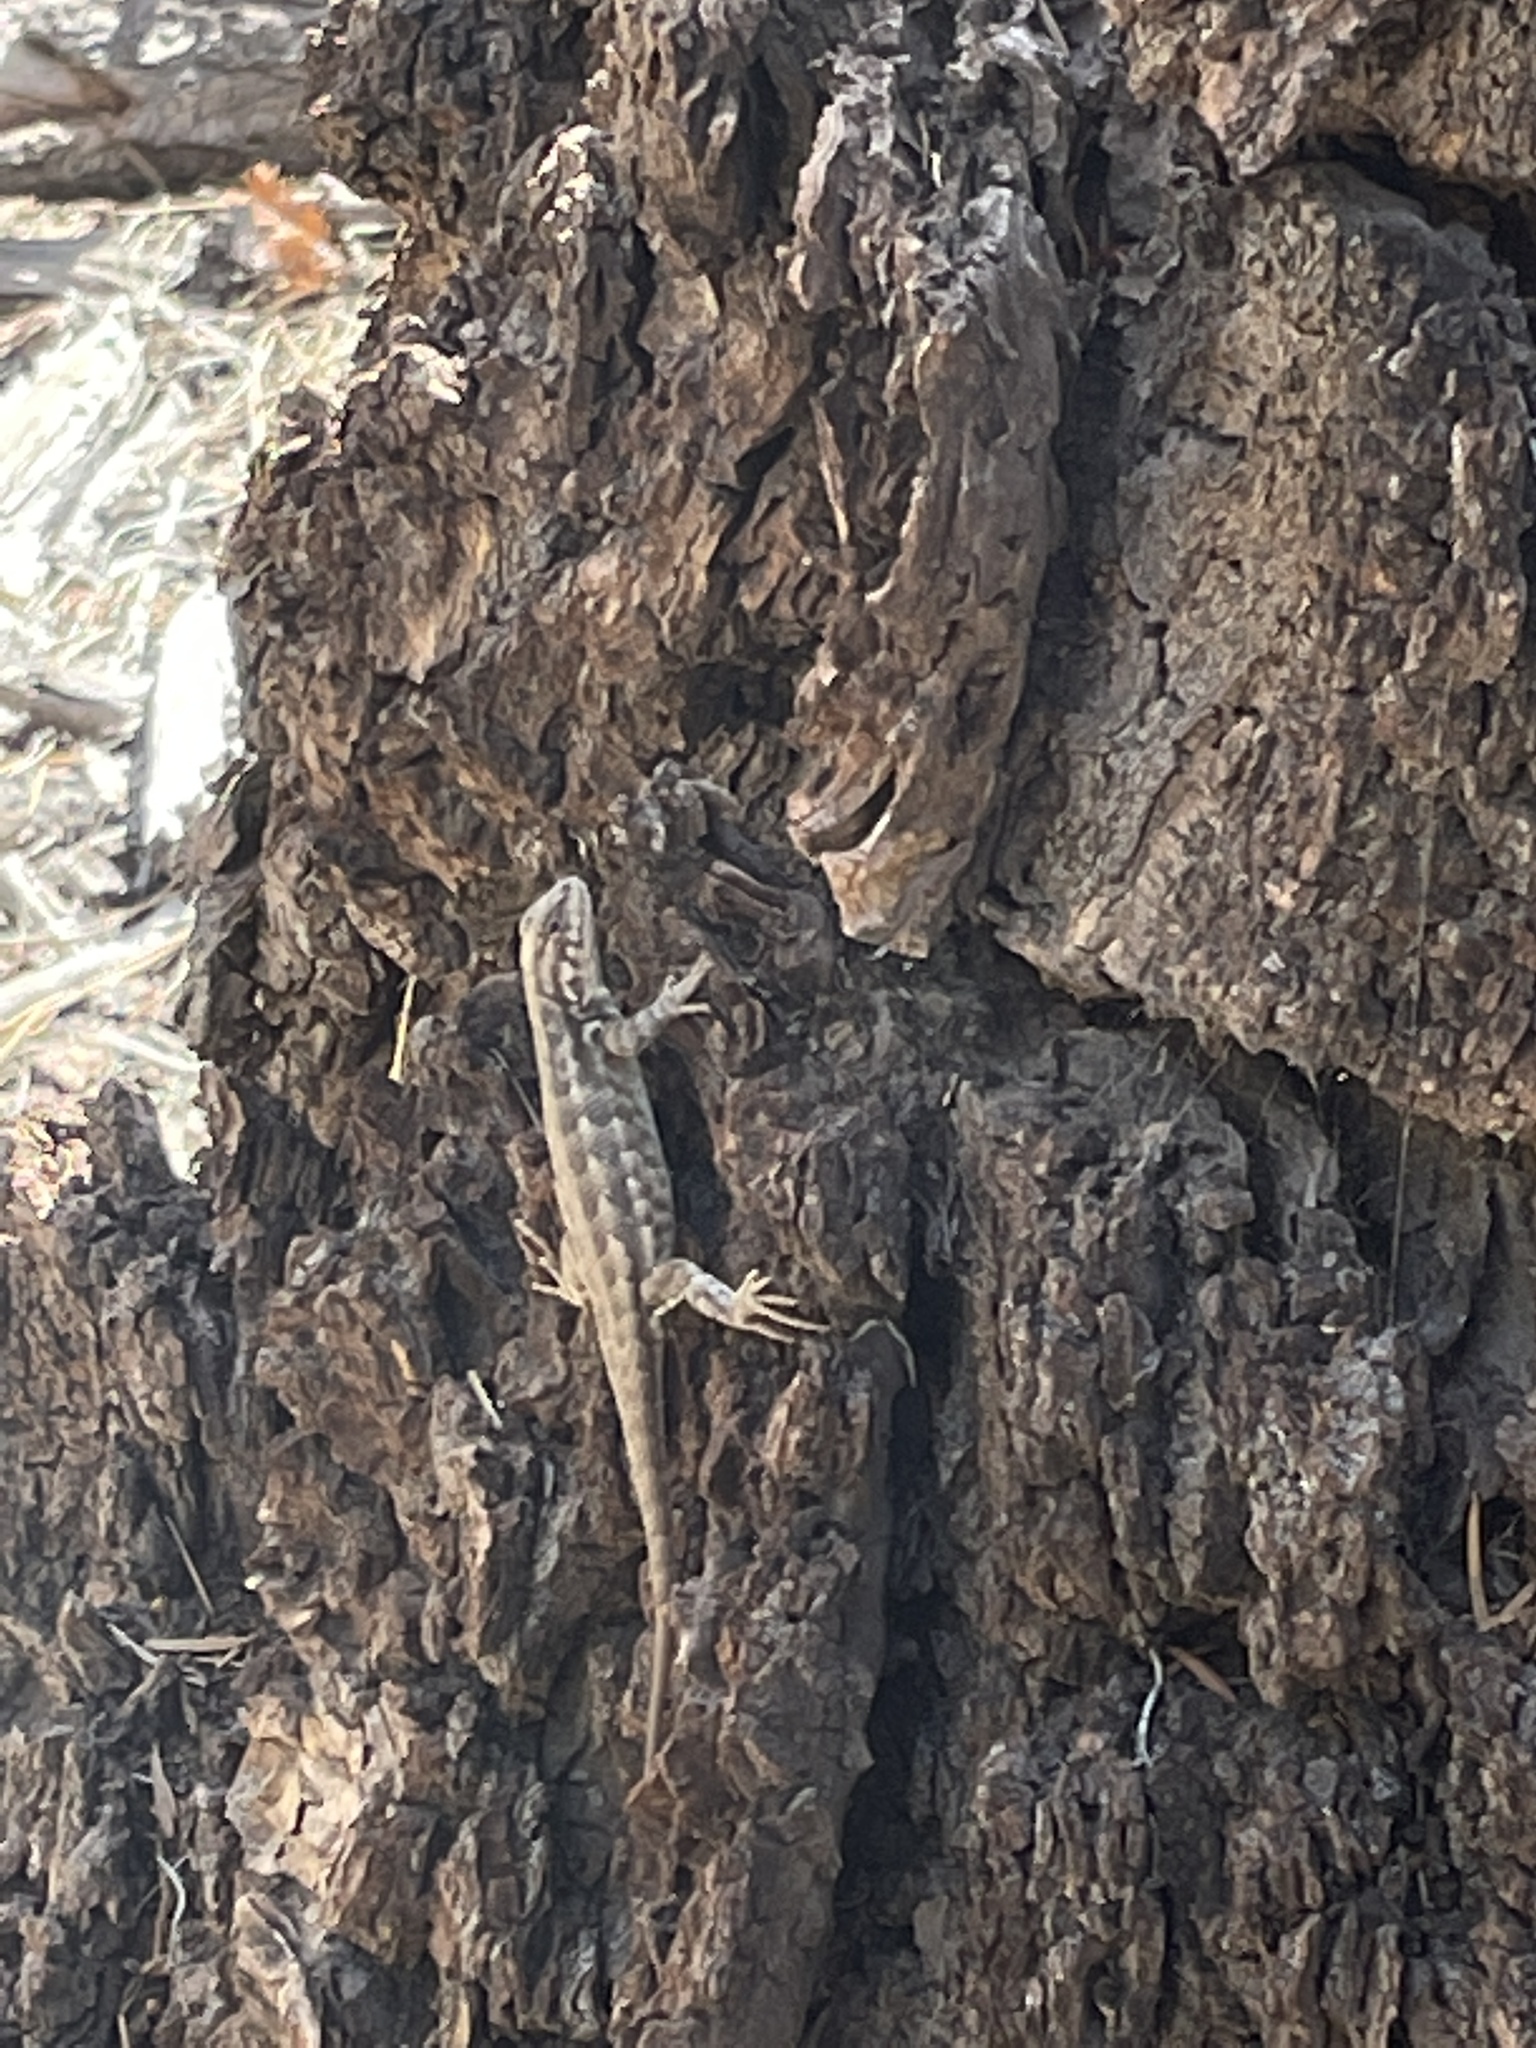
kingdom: Animalia
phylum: Chordata
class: Squamata
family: Phrynosomatidae
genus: Sceloporus
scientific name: Sceloporus graciosus
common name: Sagebrush lizard
